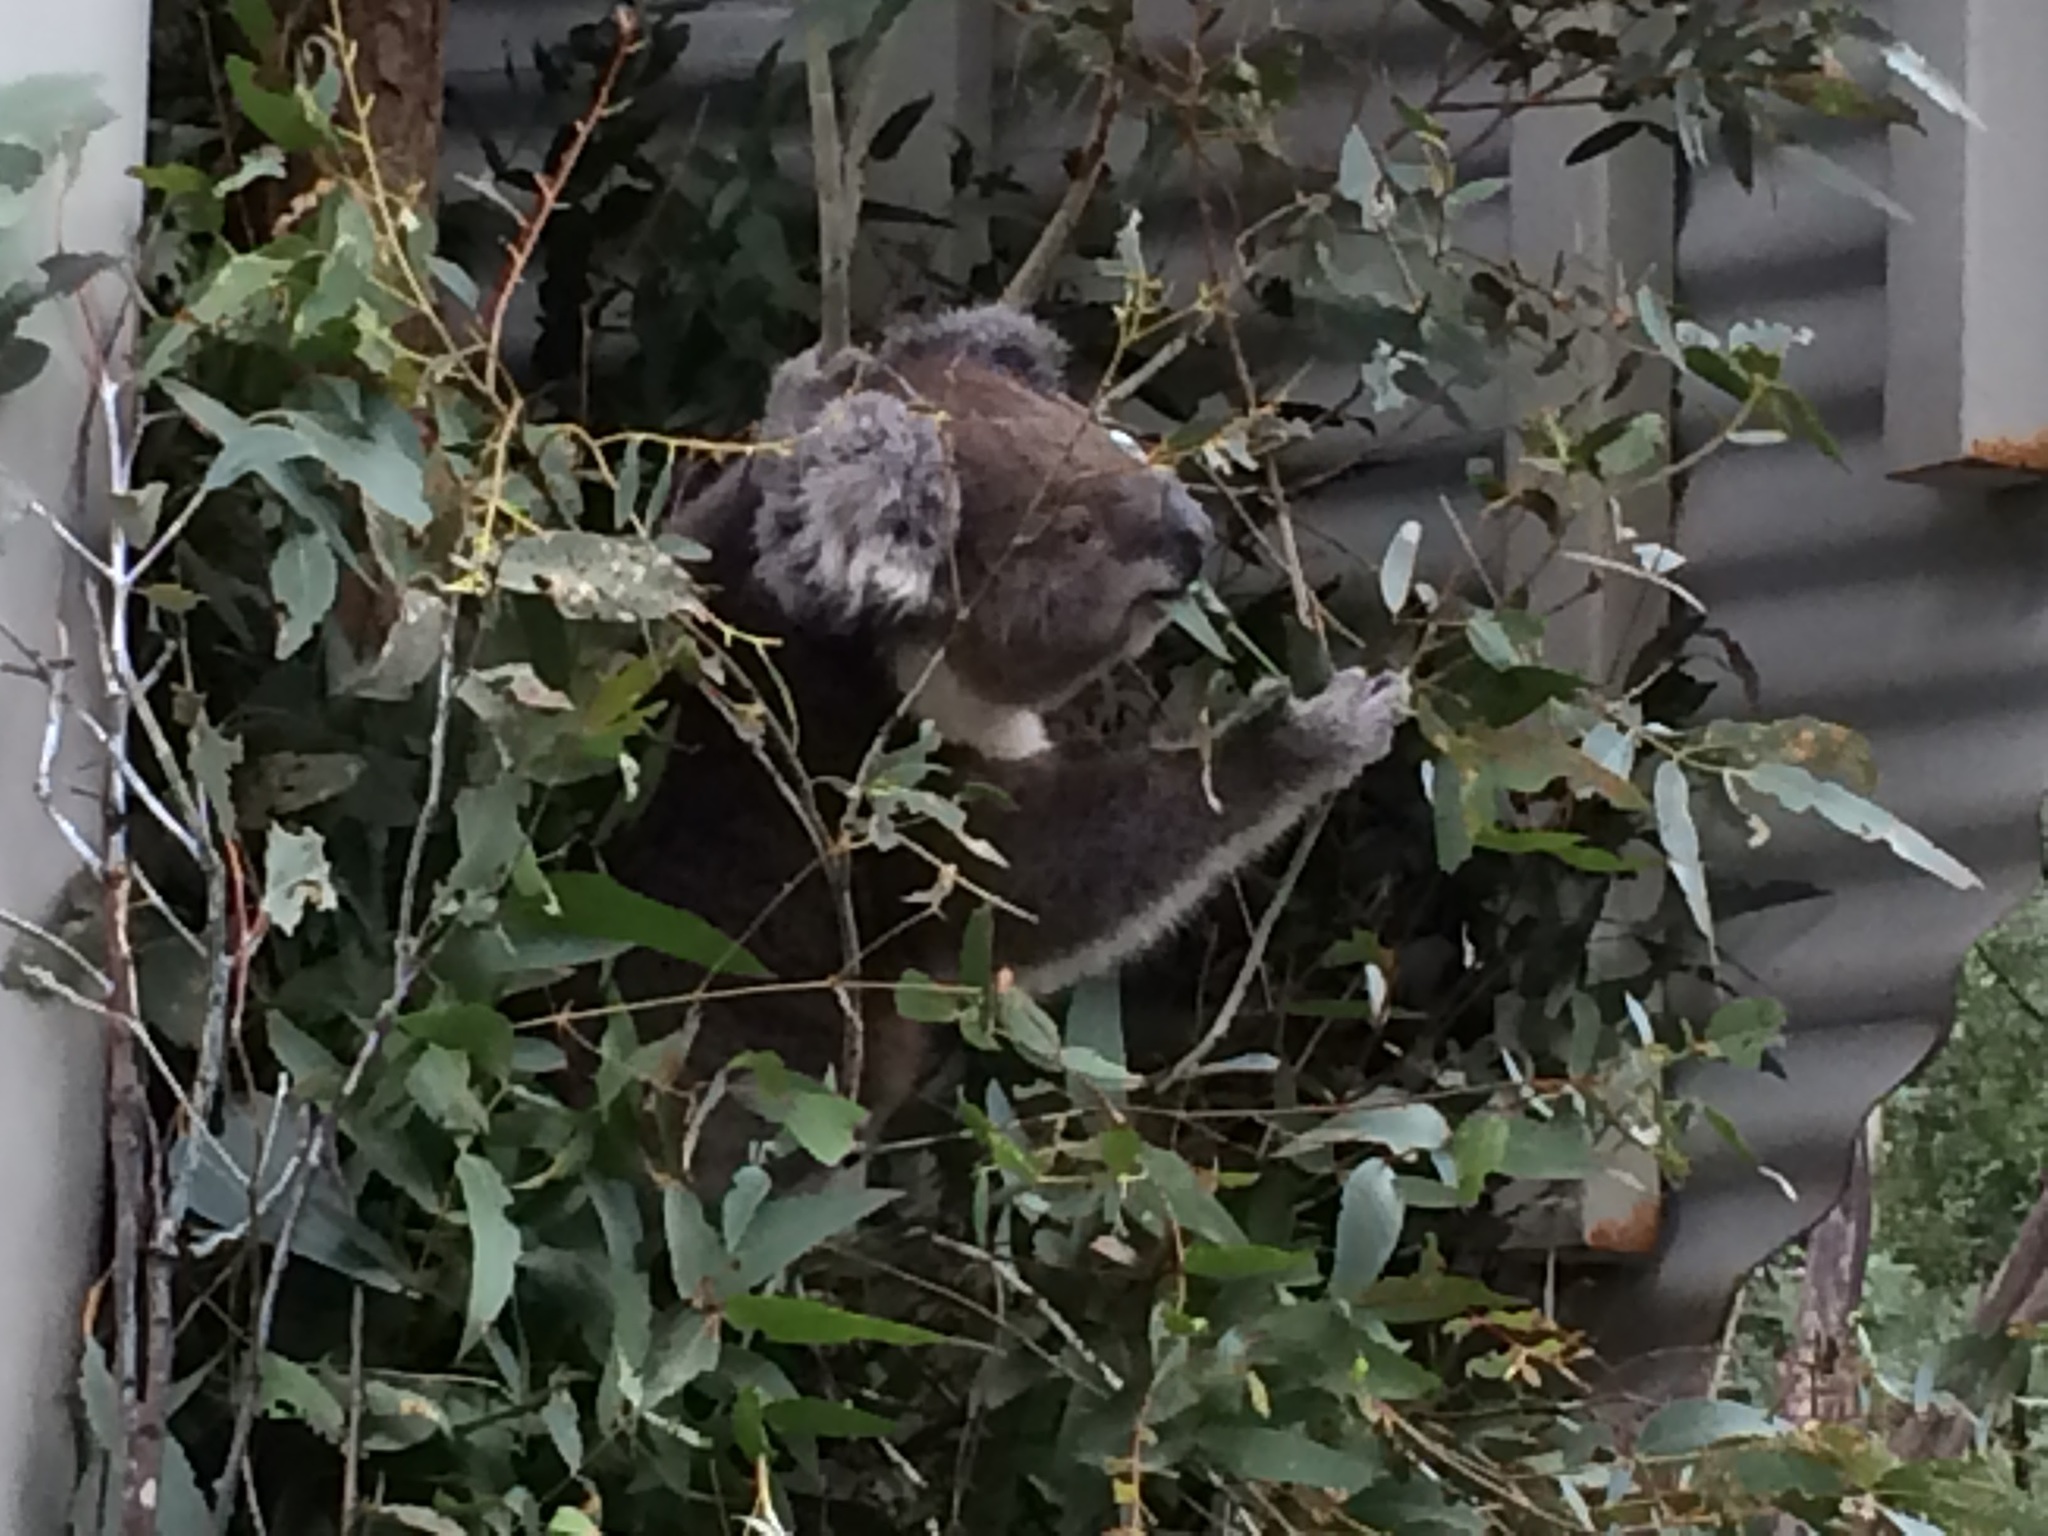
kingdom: Animalia
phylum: Chordata
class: Mammalia
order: Diprotodontia
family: Phascolarctidae
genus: Phascolarctos
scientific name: Phascolarctos cinereus
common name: Koala
